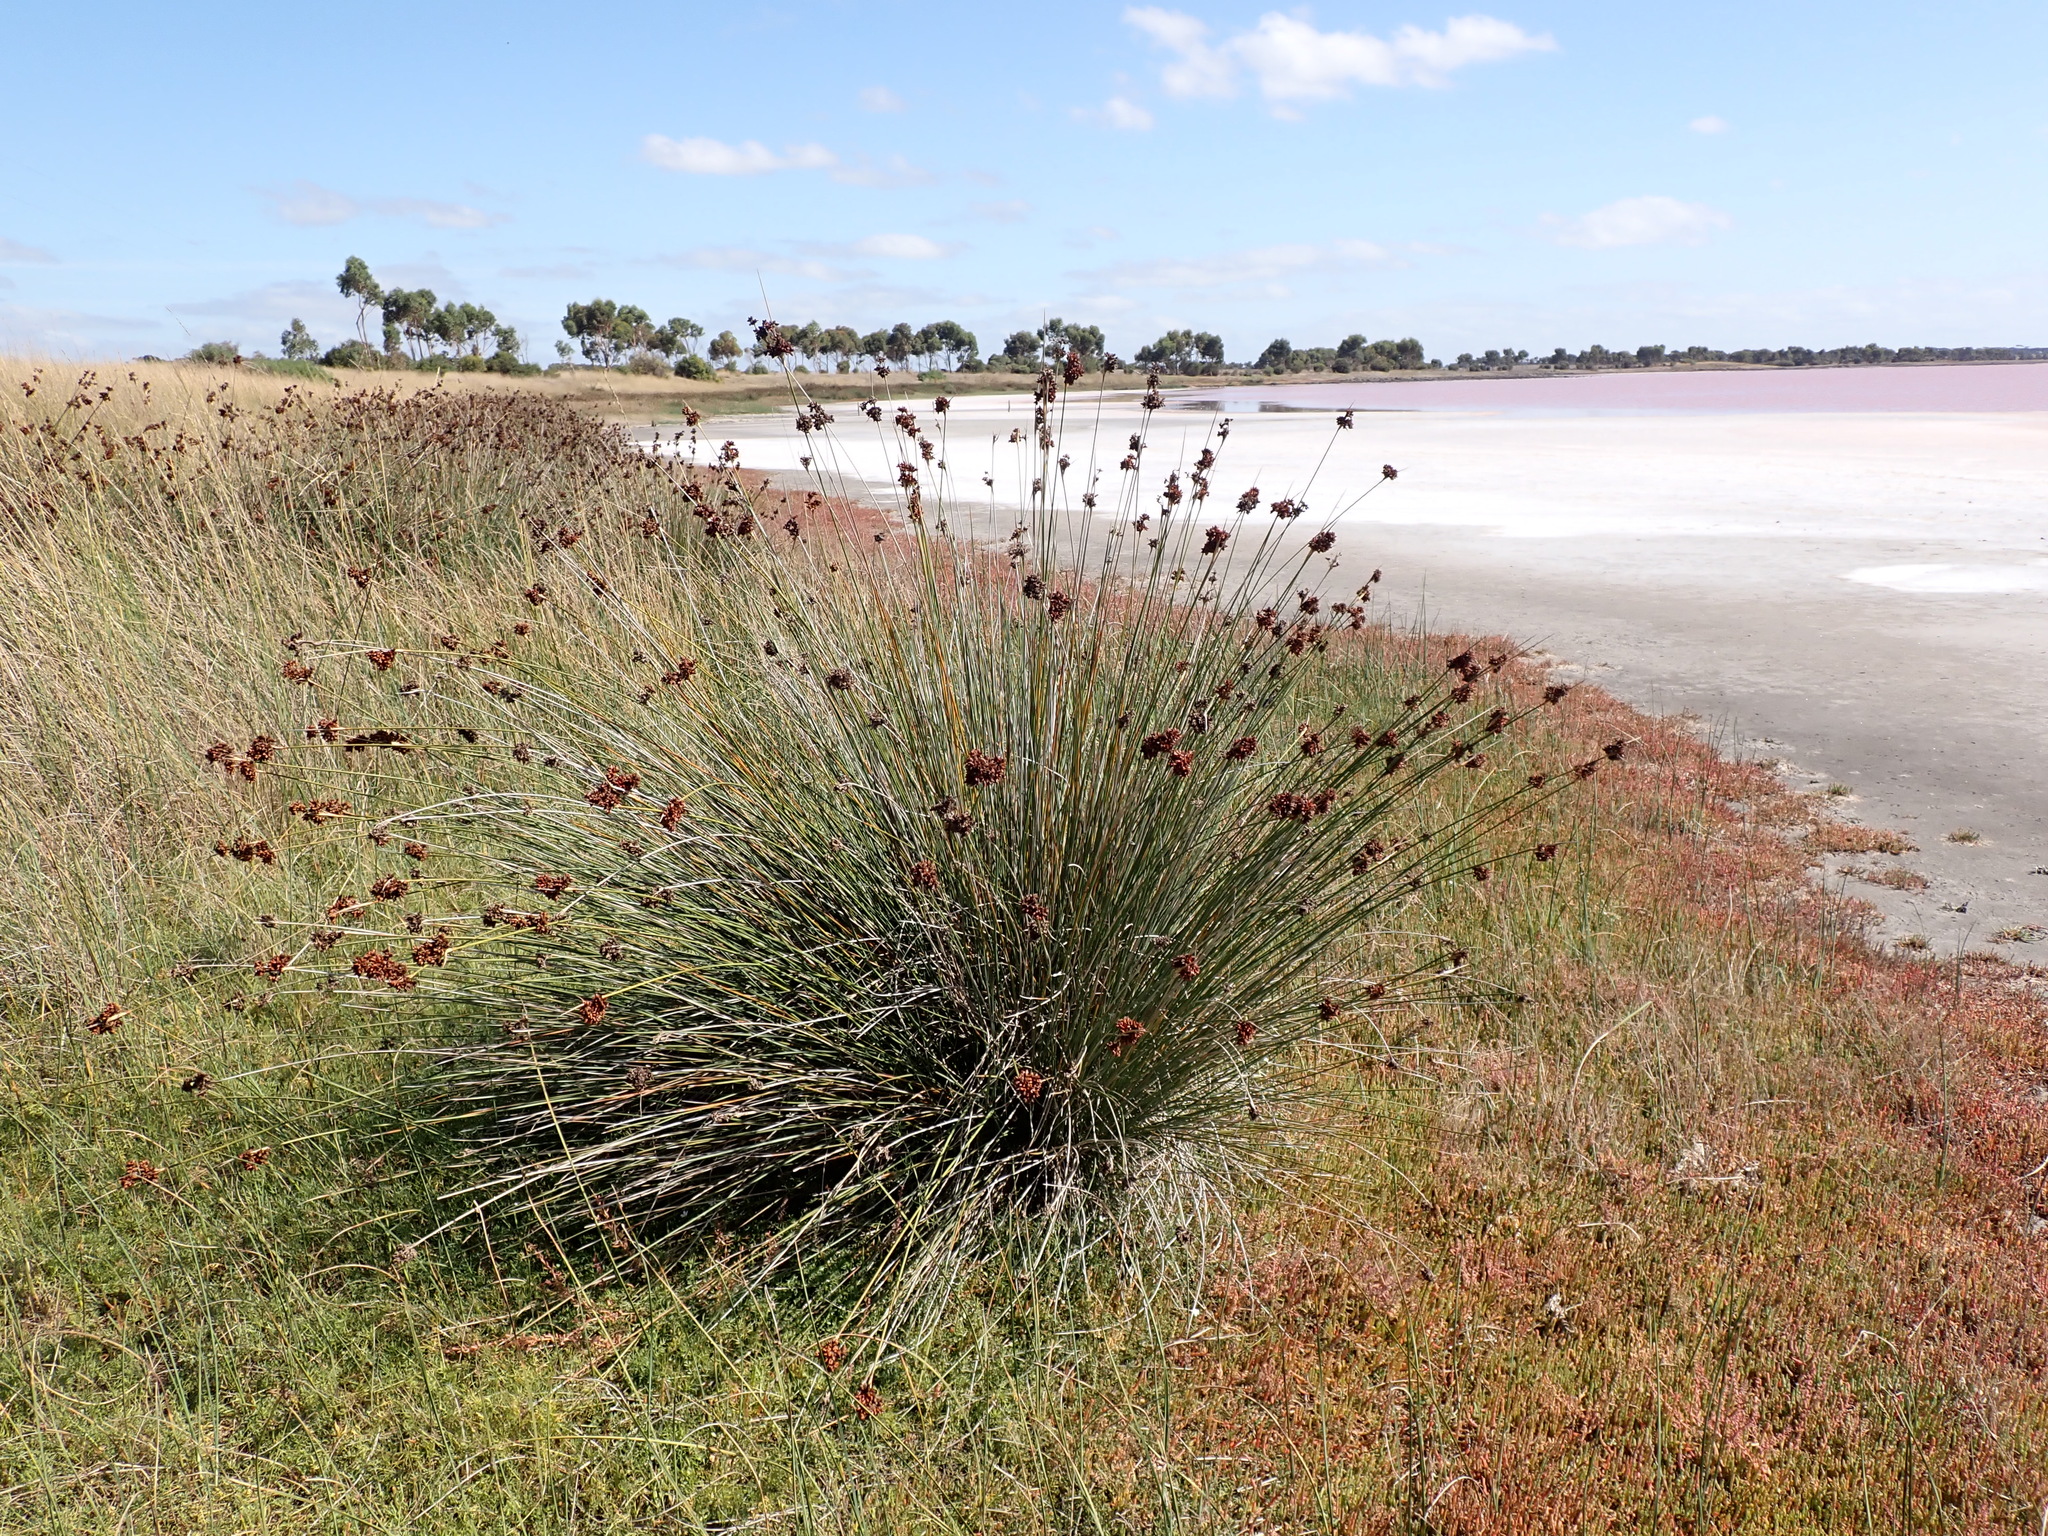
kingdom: Plantae
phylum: Tracheophyta
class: Liliopsida
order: Poales
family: Juncaceae
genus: Juncus
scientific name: Juncus acutus
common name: Sharp rush
